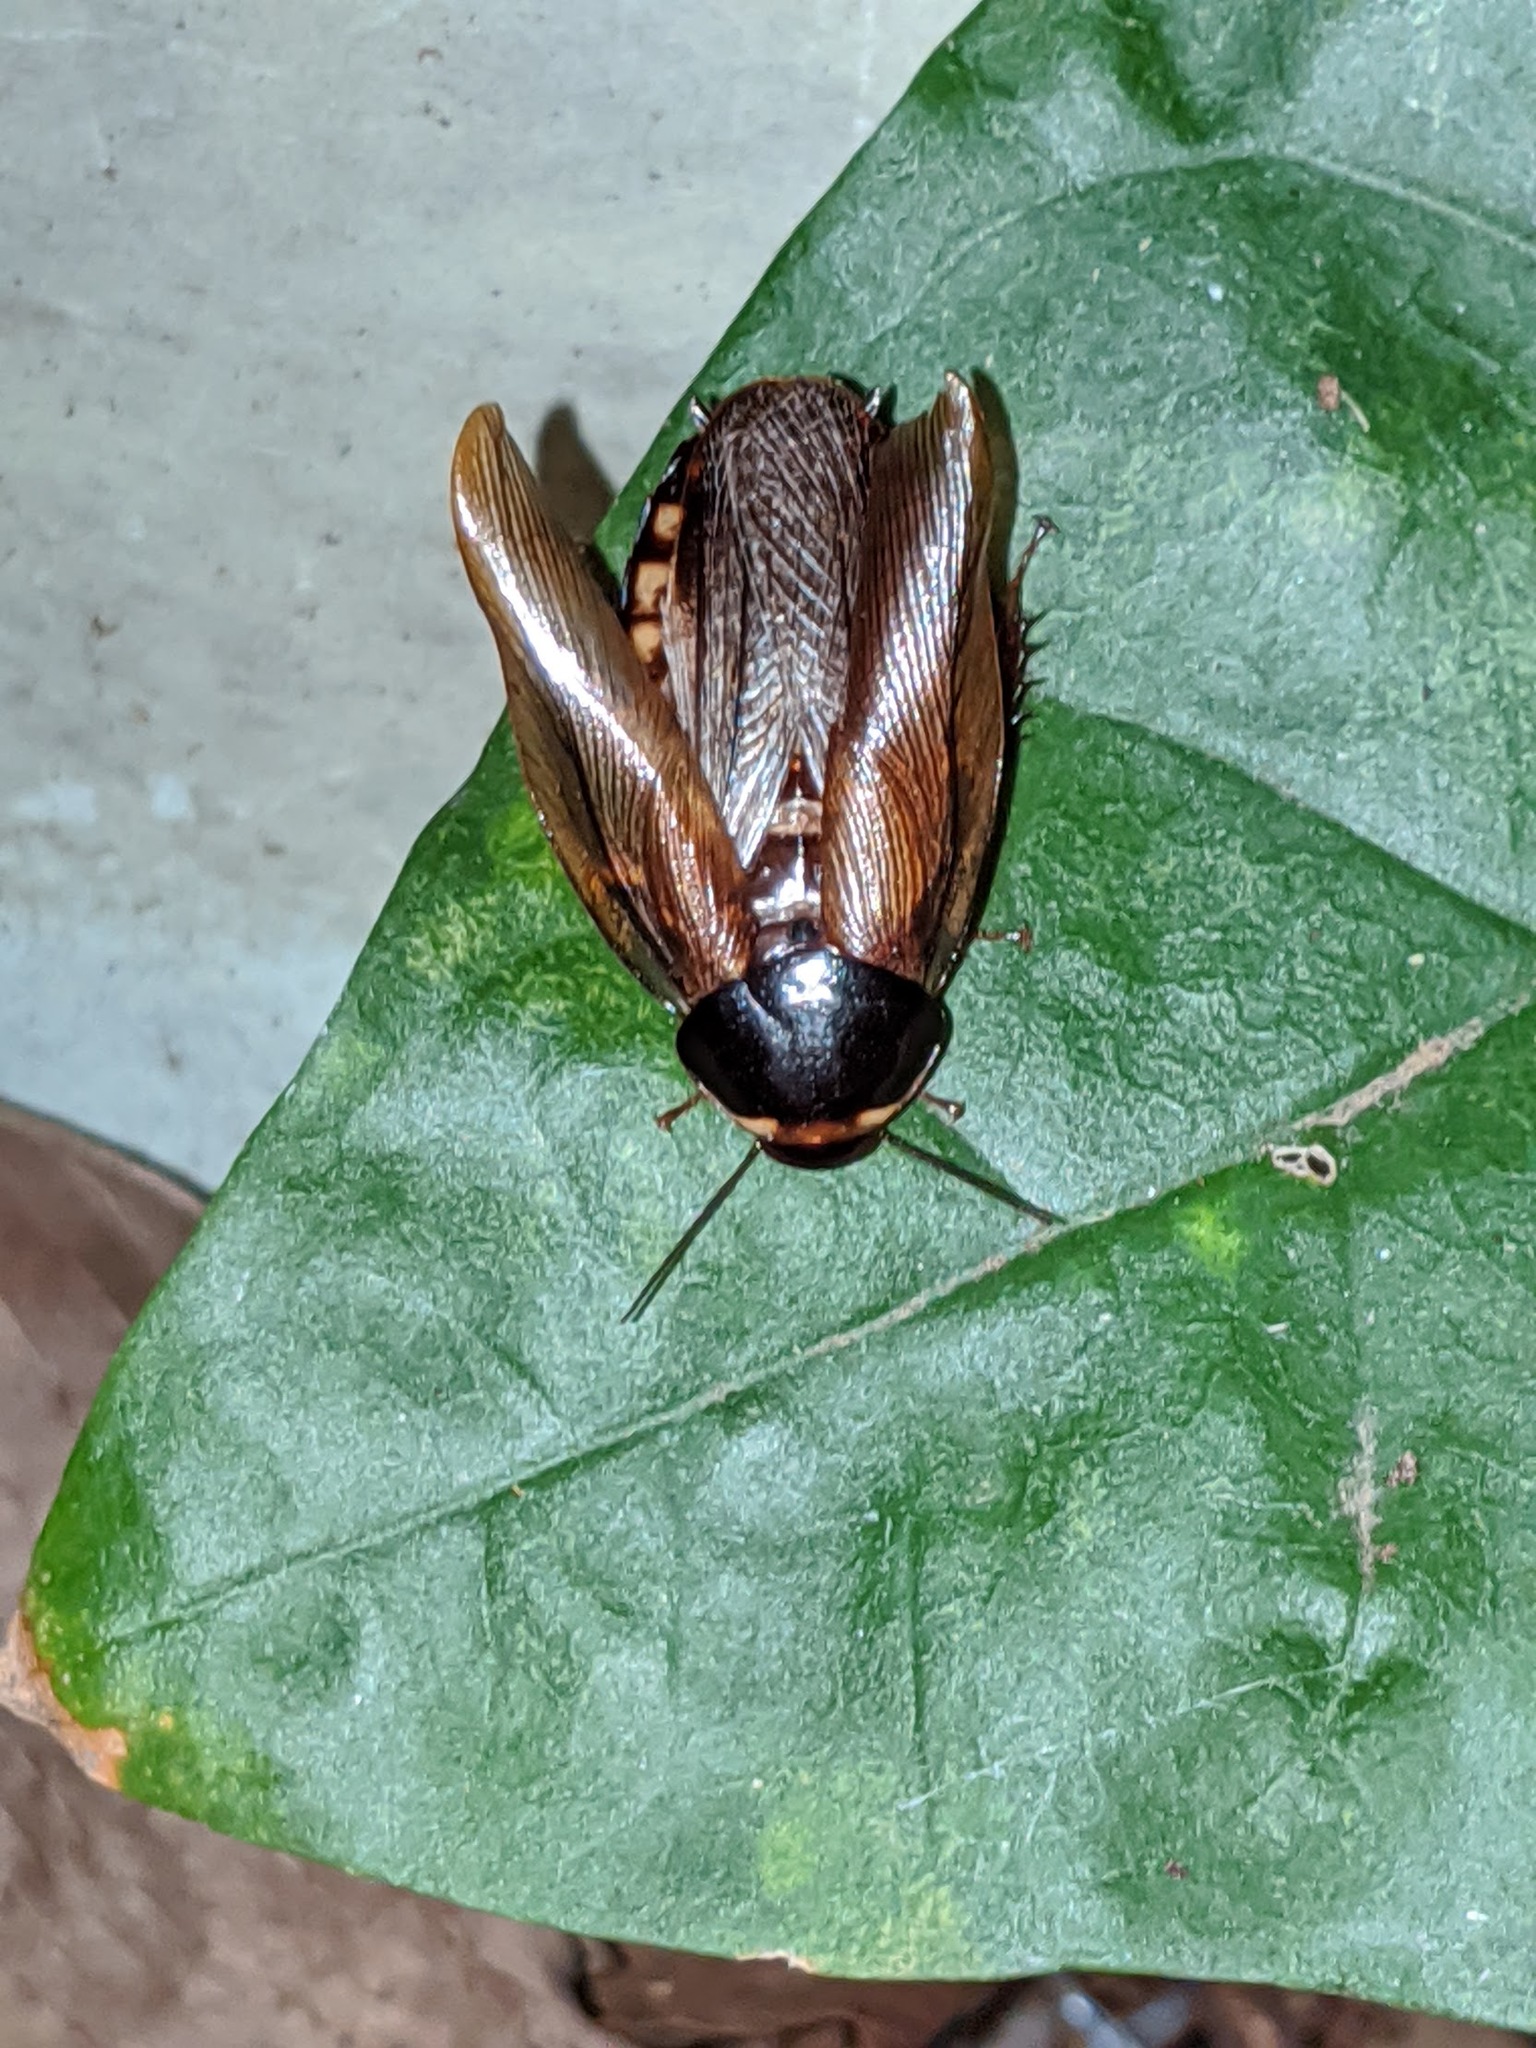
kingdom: Animalia
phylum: Arthropoda
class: Insecta
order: Blattodea
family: Blaberidae
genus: Pycnoscelus
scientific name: Pycnoscelus surinamensis
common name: Surinam cockroach
